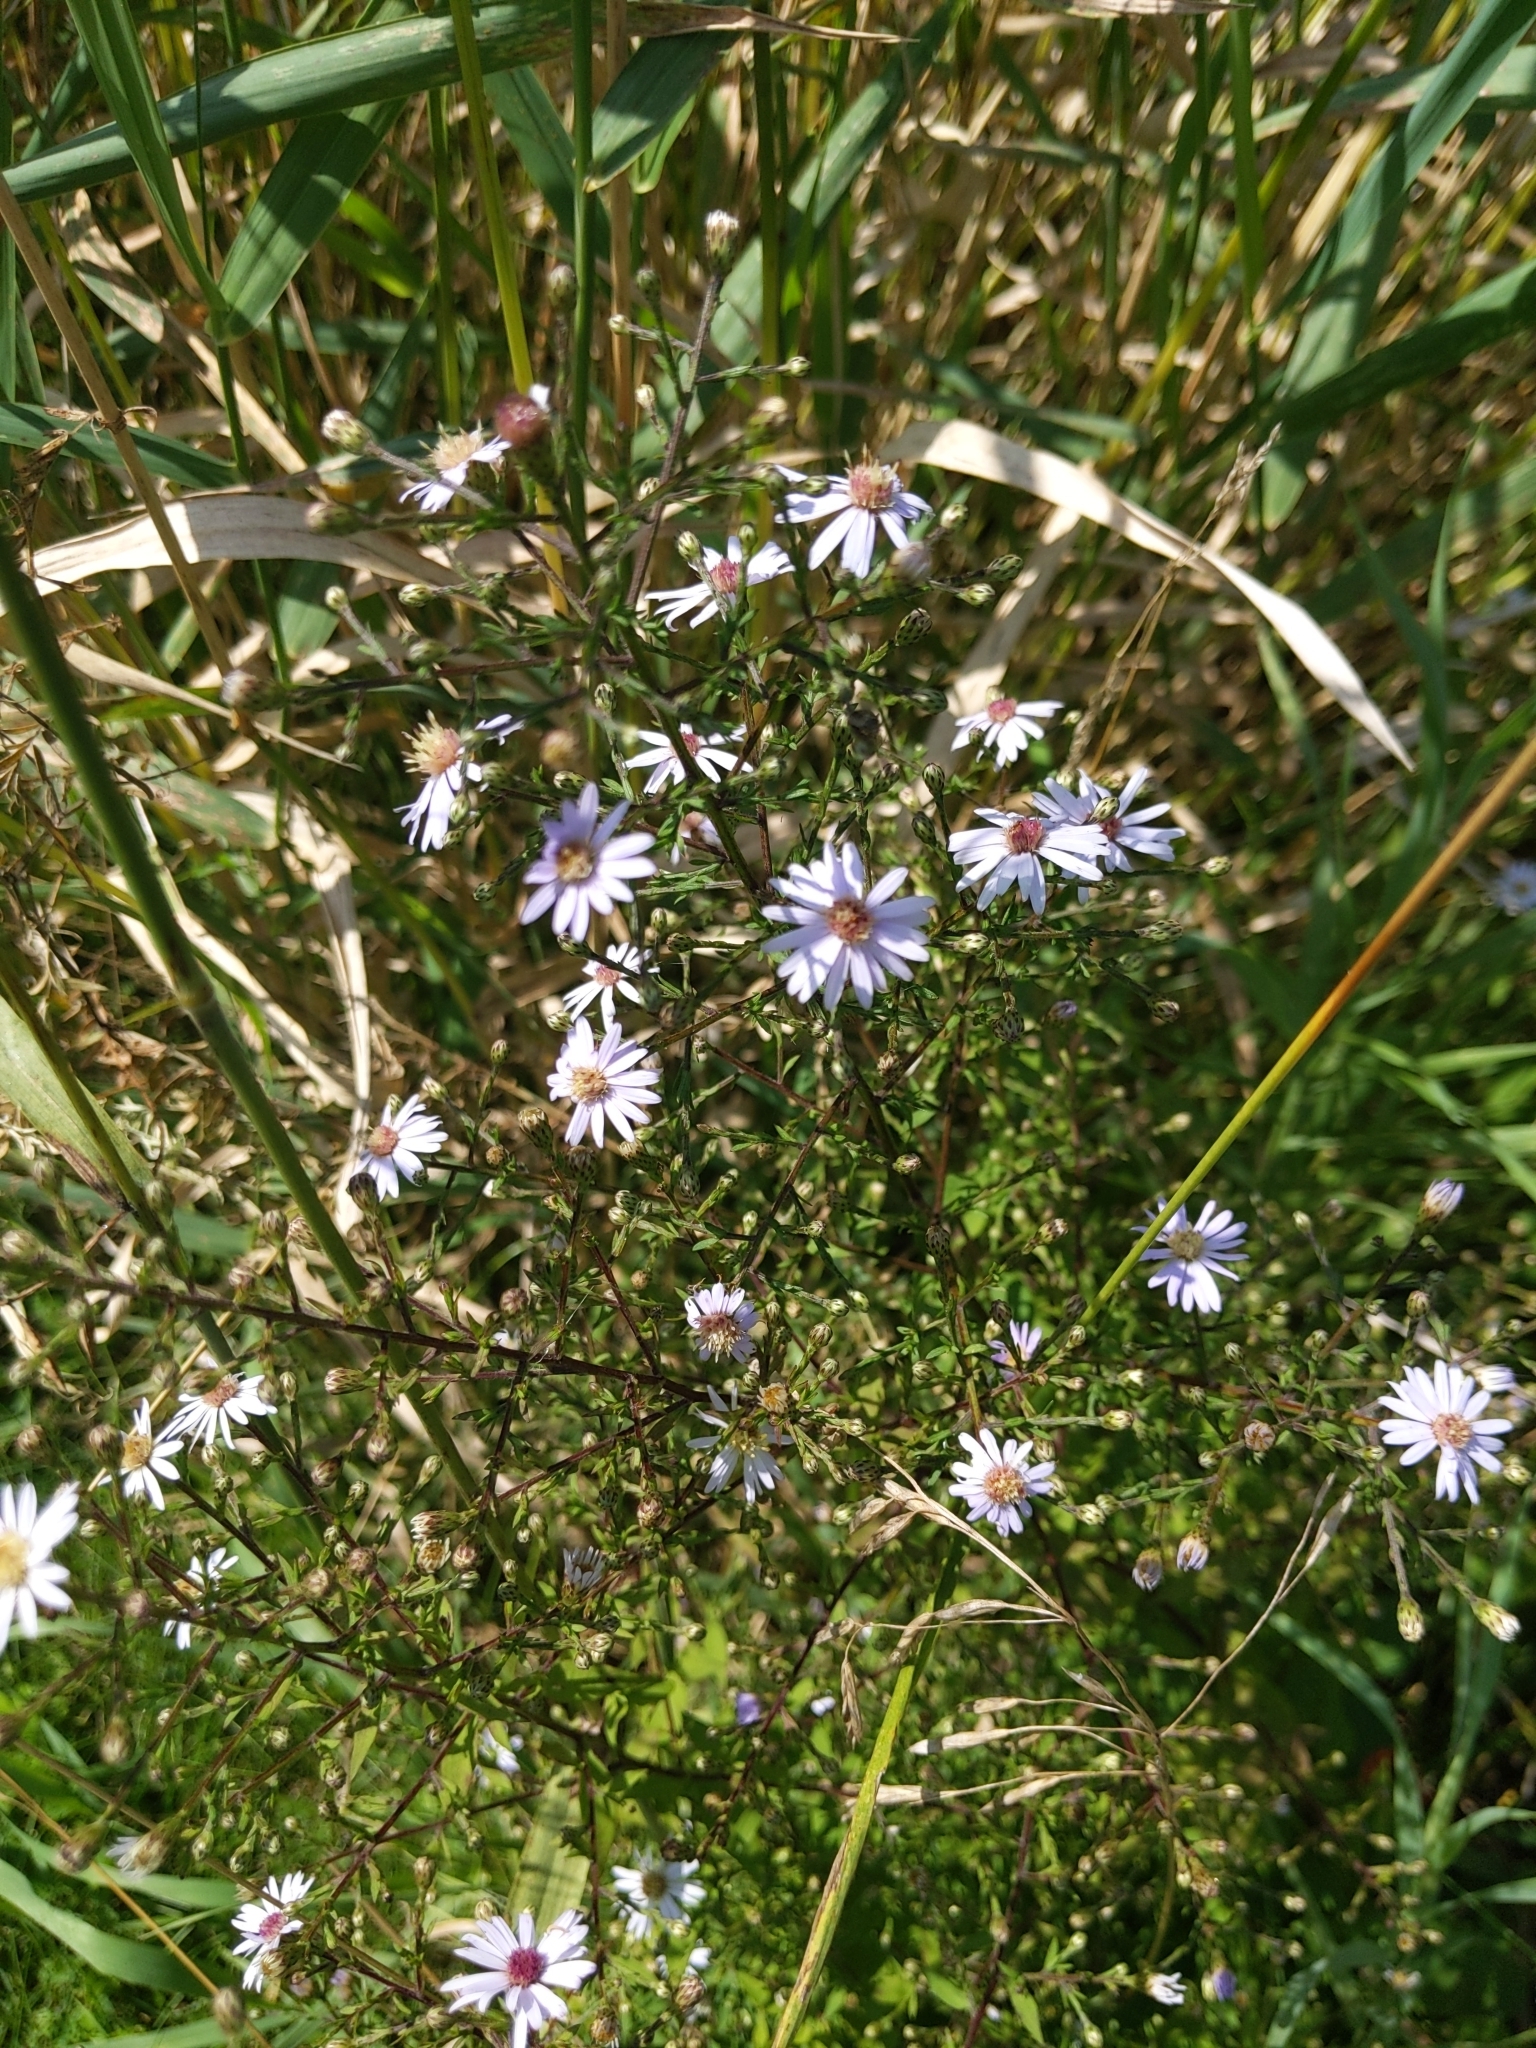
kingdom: Plantae
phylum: Tracheophyta
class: Magnoliopsida
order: Asterales
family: Asteraceae
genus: Symphyotrichum
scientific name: Symphyotrichum cordifolium
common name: Beeweed
